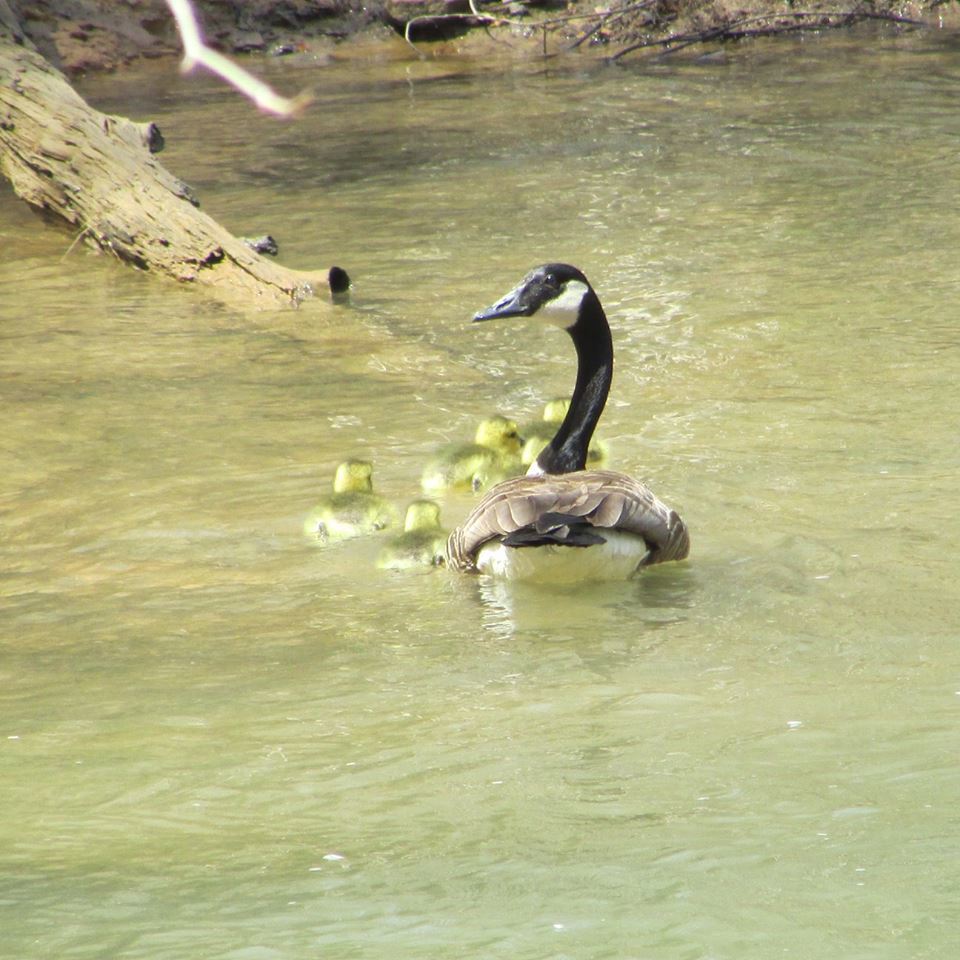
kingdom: Animalia
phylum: Chordata
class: Aves
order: Anseriformes
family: Anatidae
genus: Branta
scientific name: Branta canadensis
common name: Canada goose
